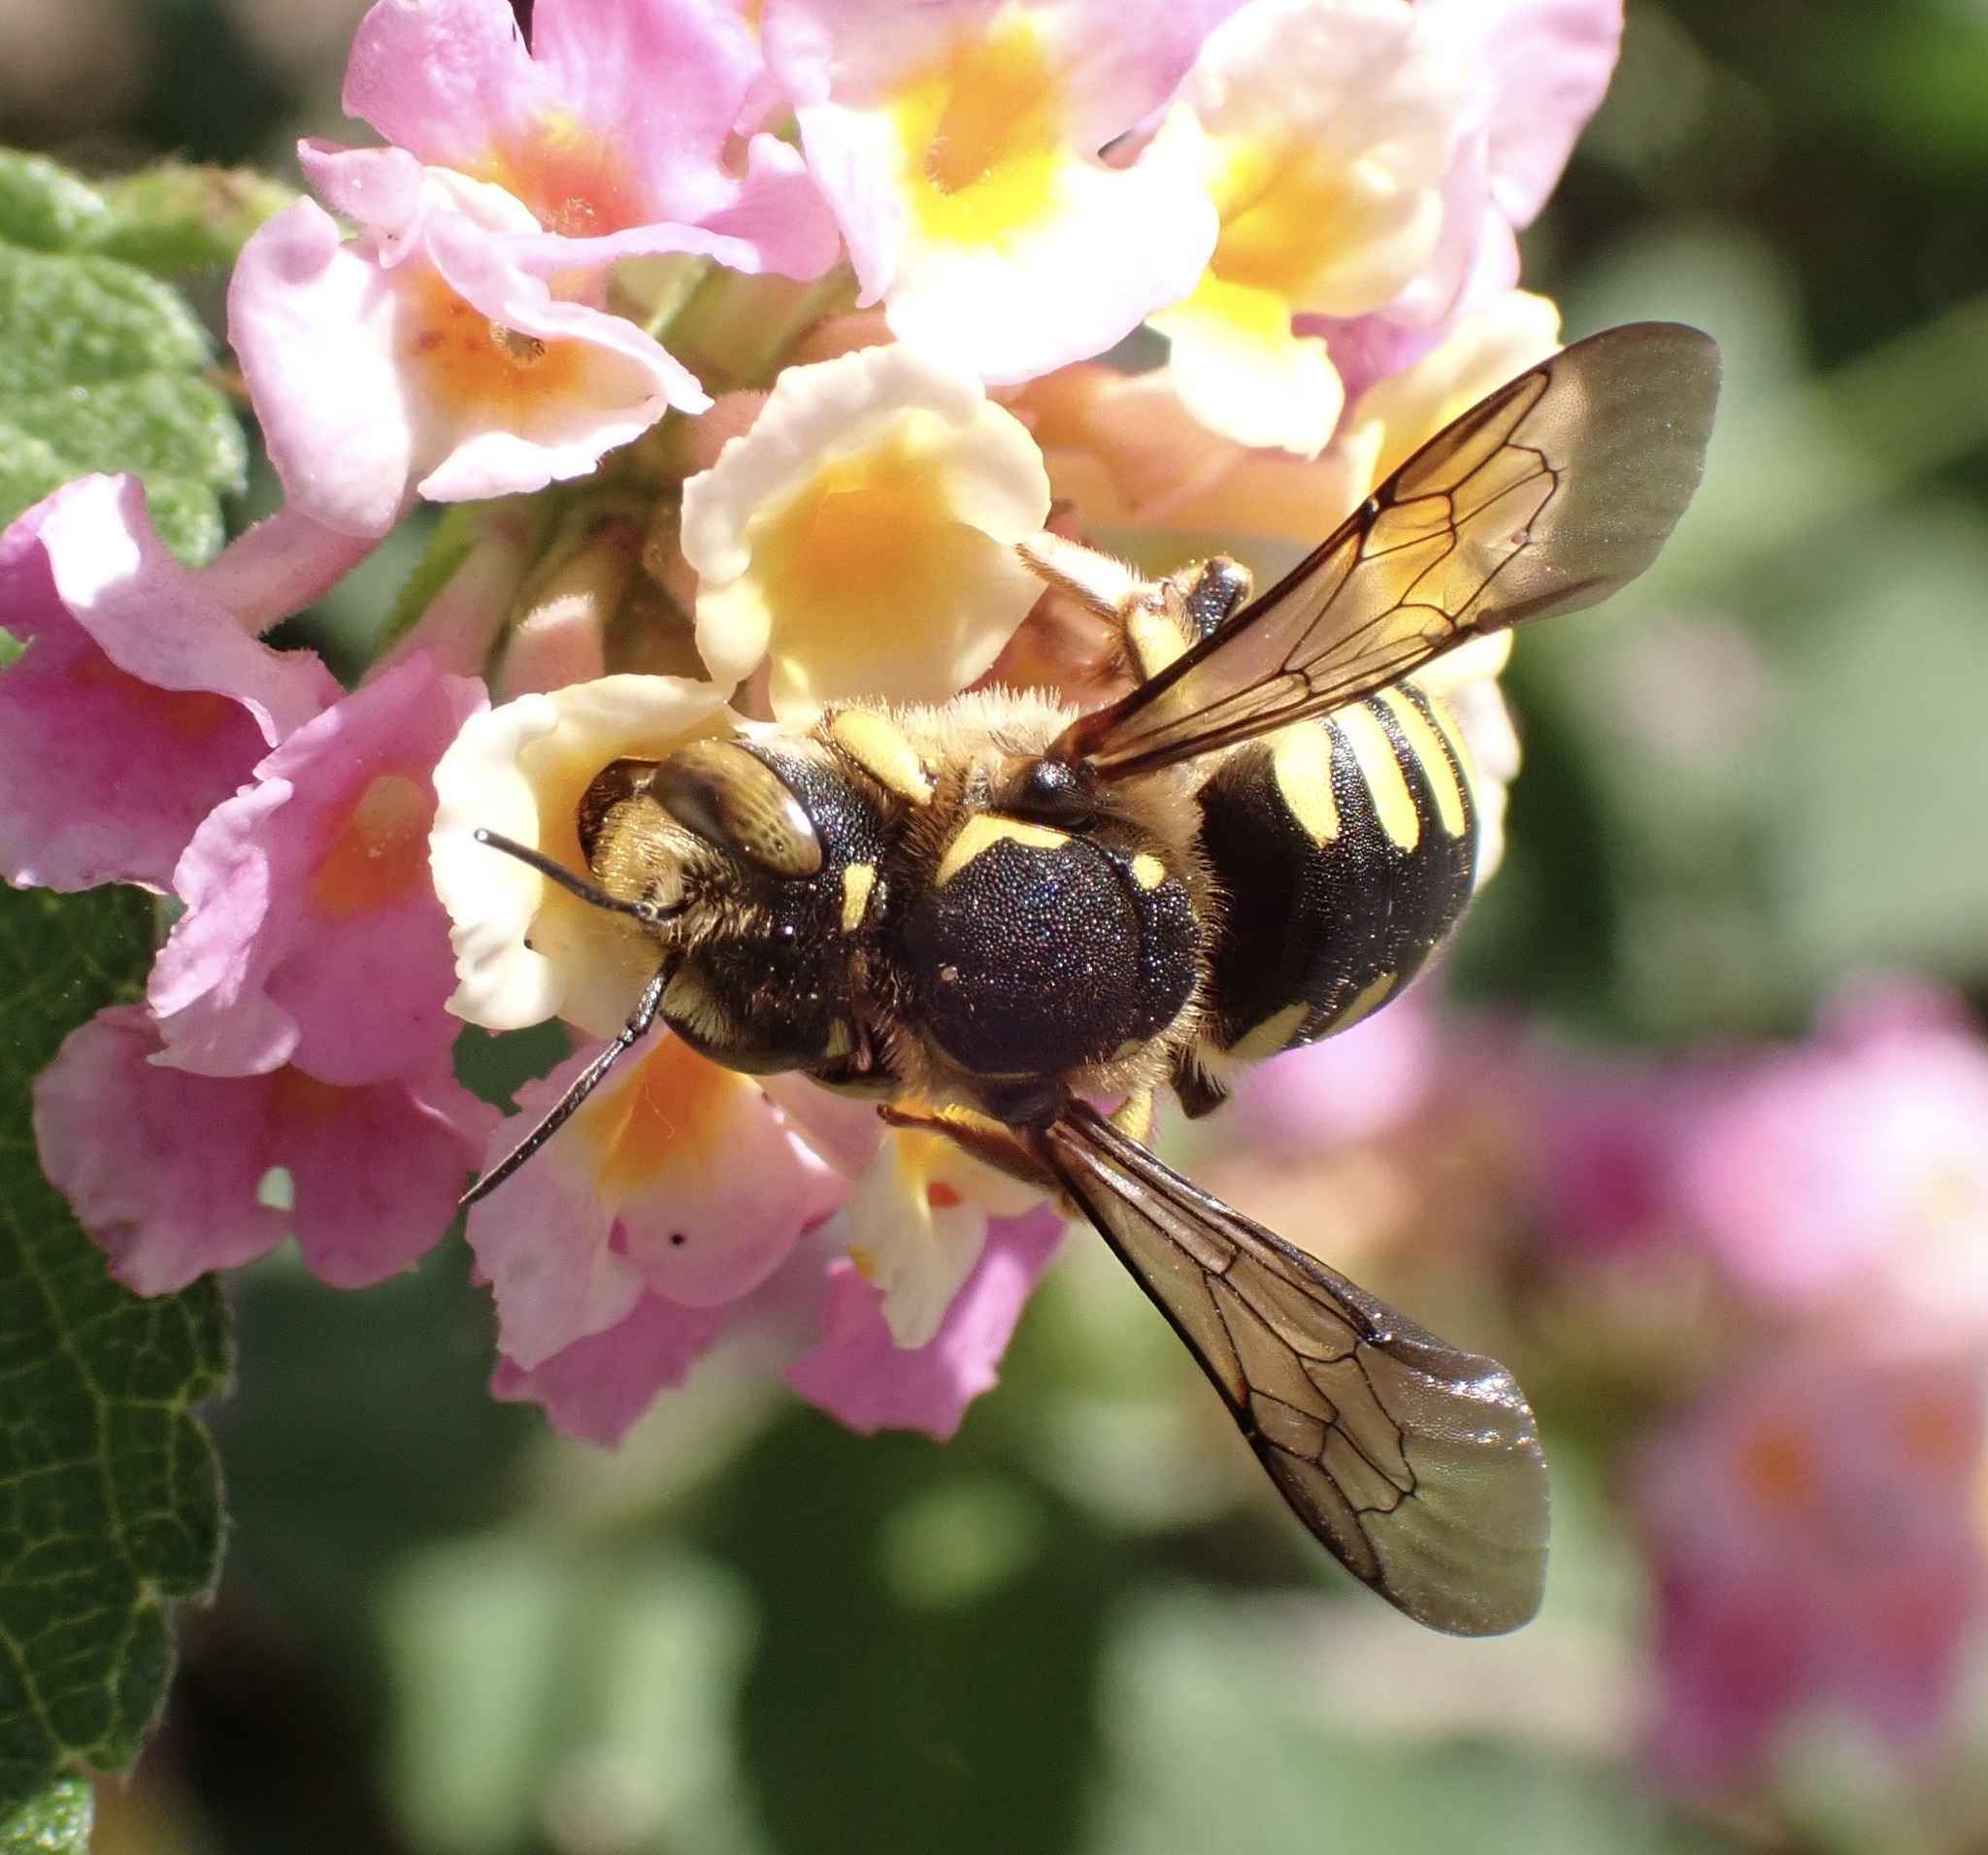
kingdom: Animalia
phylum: Arthropoda
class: Insecta
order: Hymenoptera
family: Megachilidae
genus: Anthidium
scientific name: Anthidium florentinum
